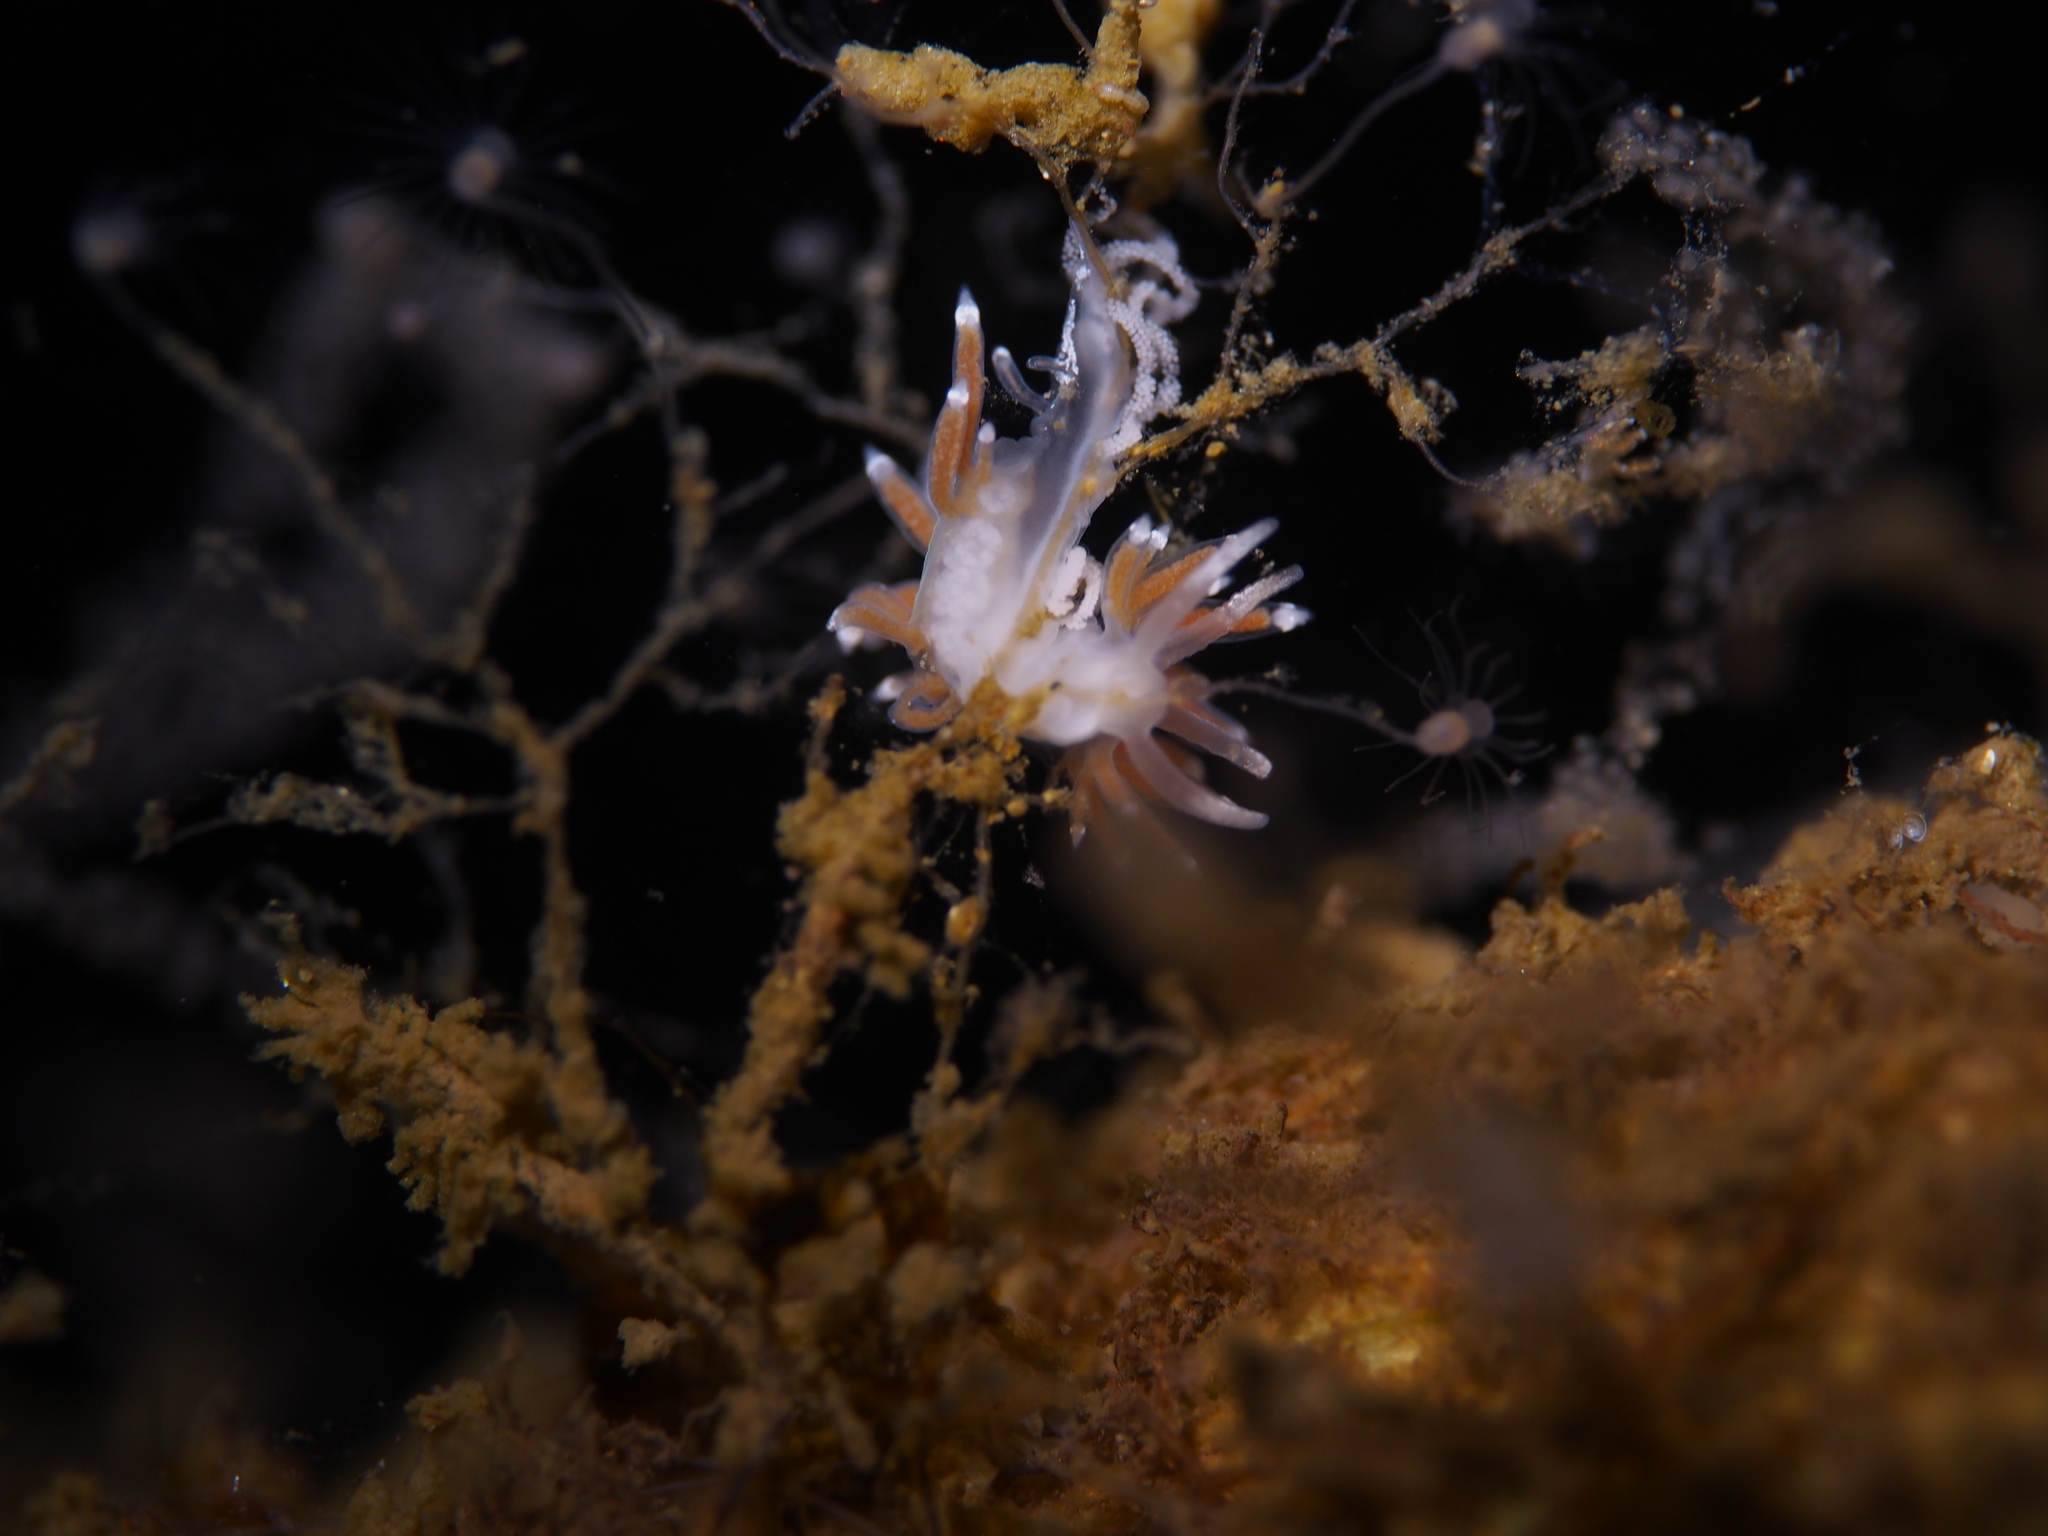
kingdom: Animalia
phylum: Mollusca
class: Gastropoda
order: Nudibranchia
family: Coryphellidae
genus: Coryphella
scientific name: Coryphella gracilis
